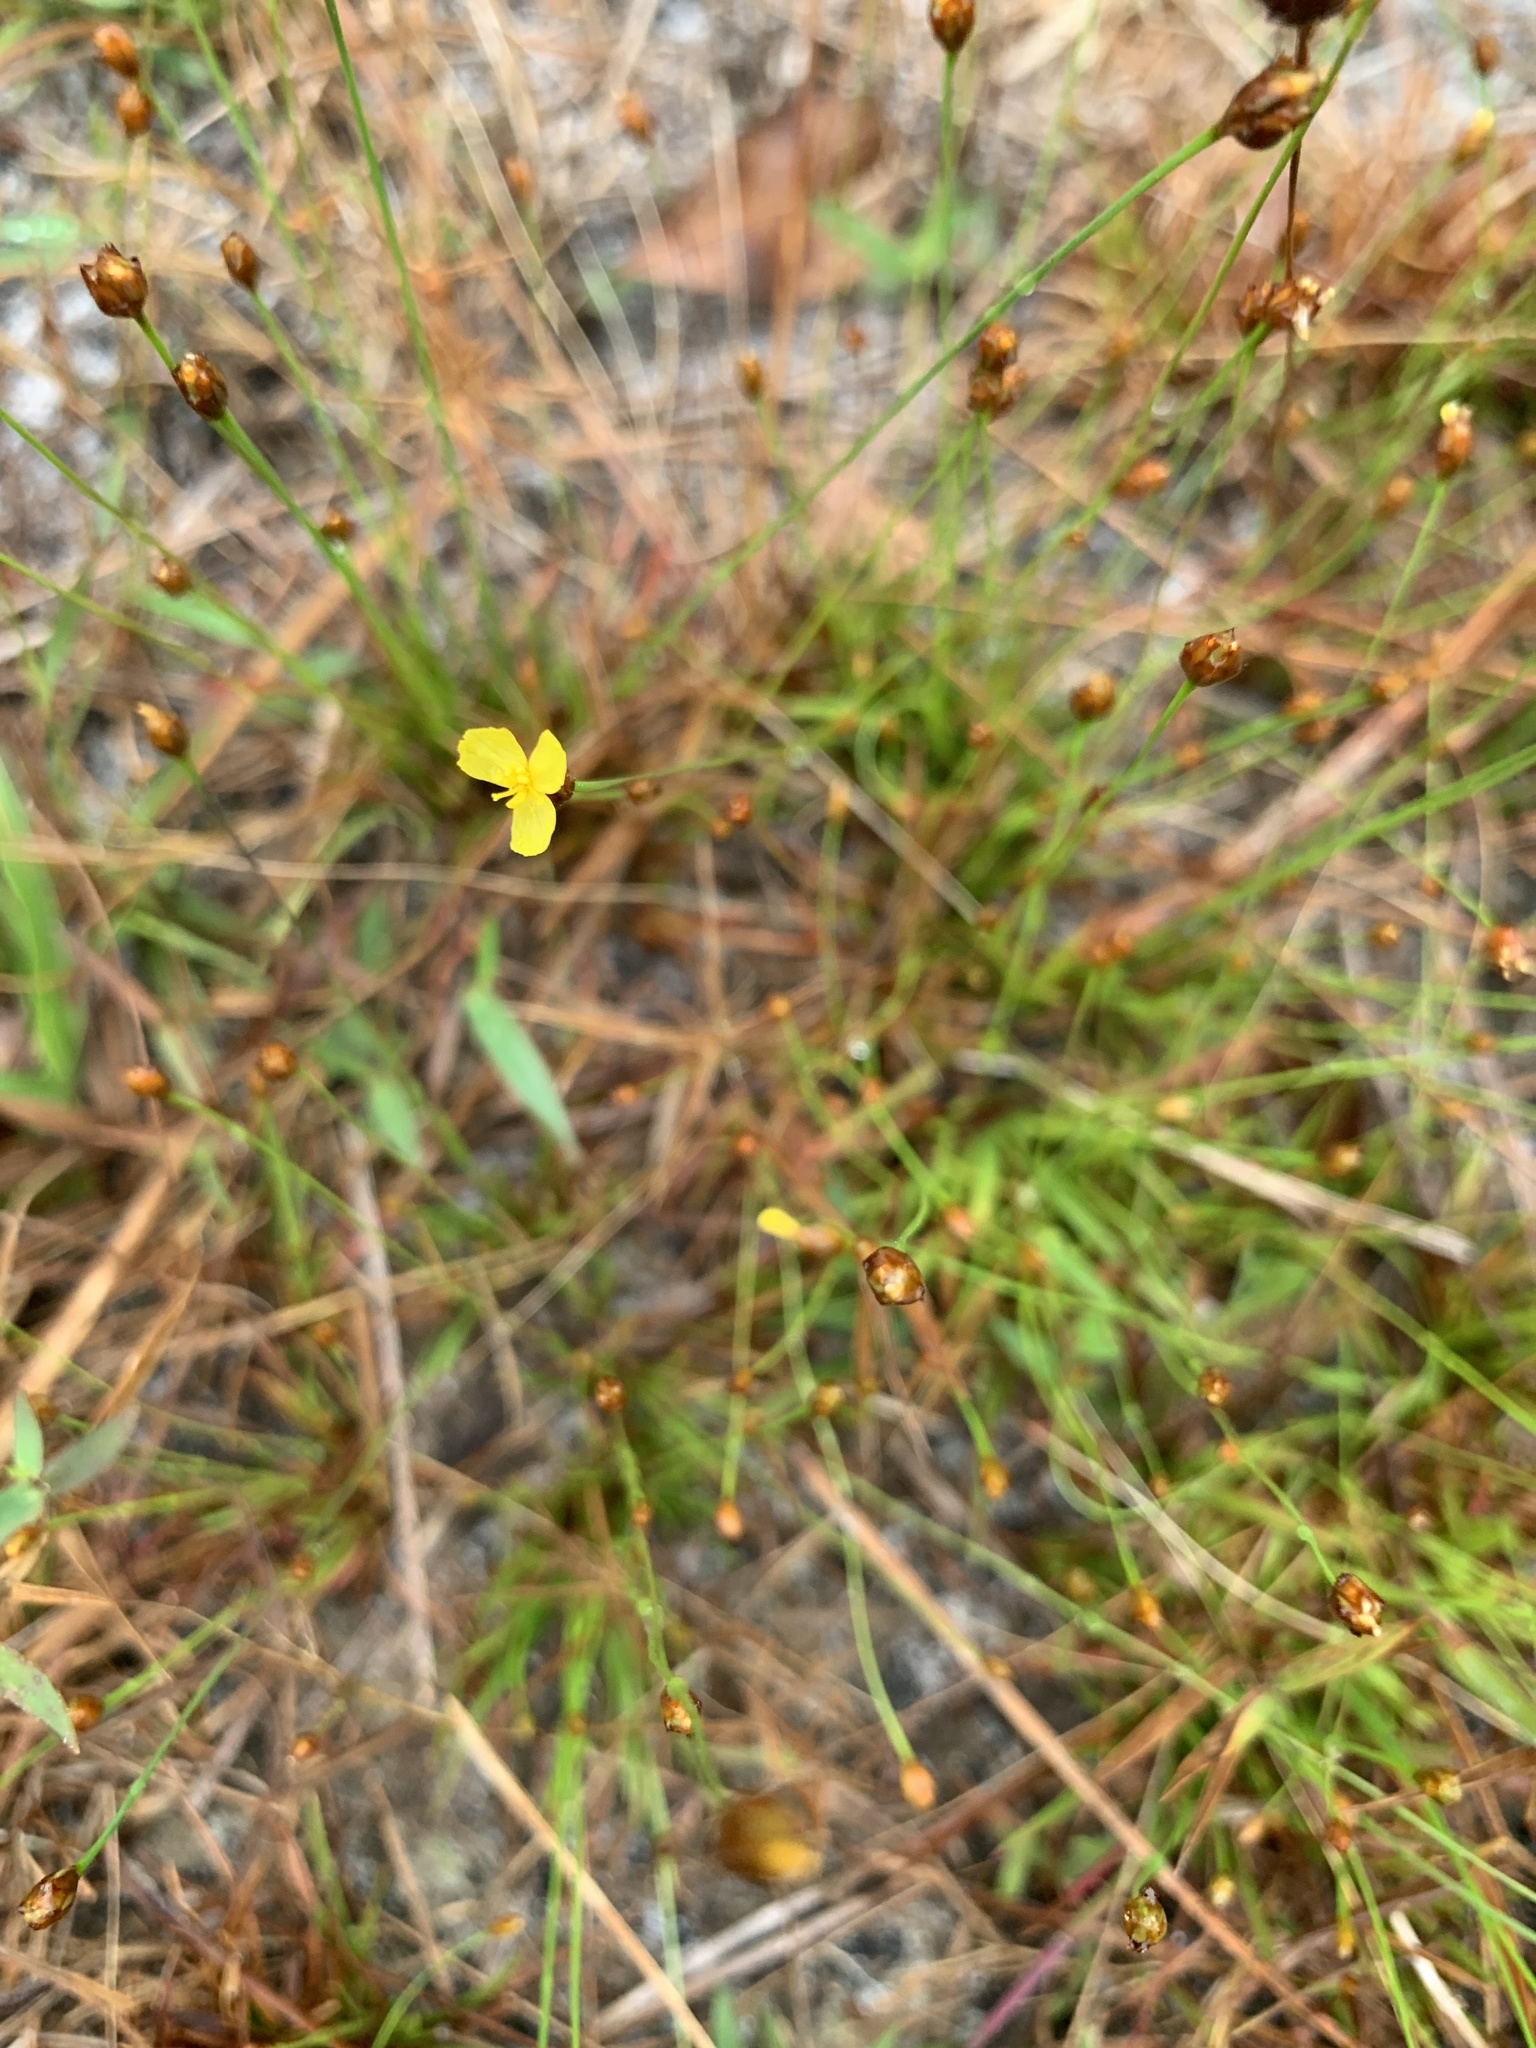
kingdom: Plantae
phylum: Tracheophyta
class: Liliopsida
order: Poales
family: Xyridaceae
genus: Xyris
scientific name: Xyris brevifolia
